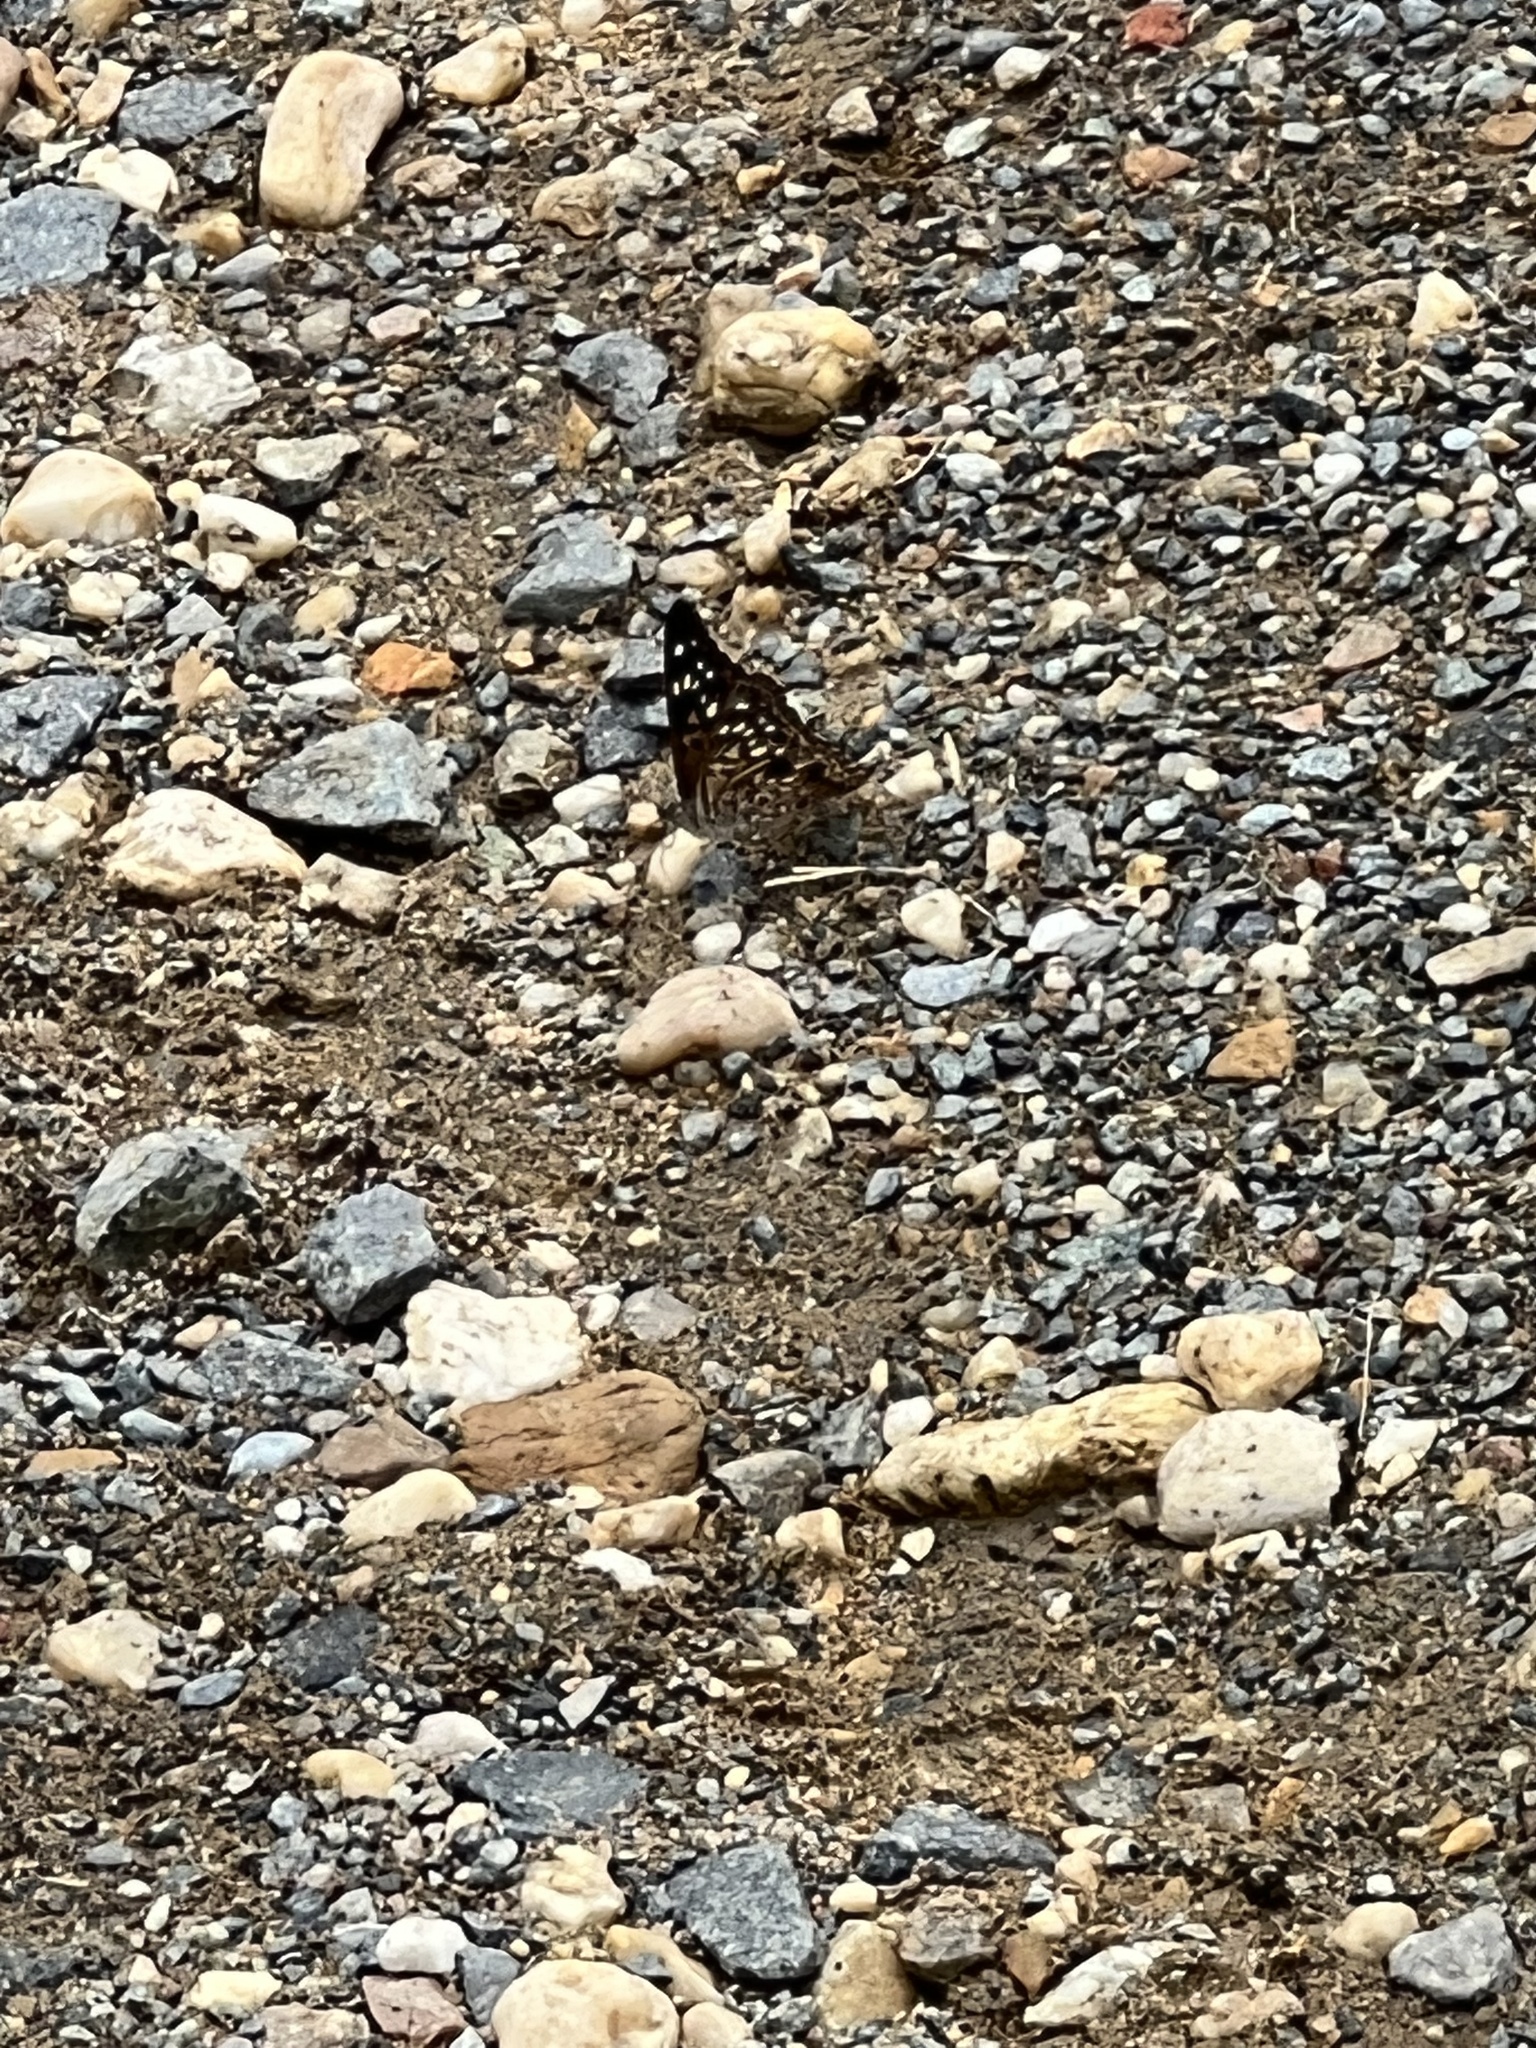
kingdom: Animalia
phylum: Arthropoda
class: Insecta
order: Lepidoptera
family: Nymphalidae
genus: Asterocampa
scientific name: Asterocampa celtis
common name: Hackberry emperor
